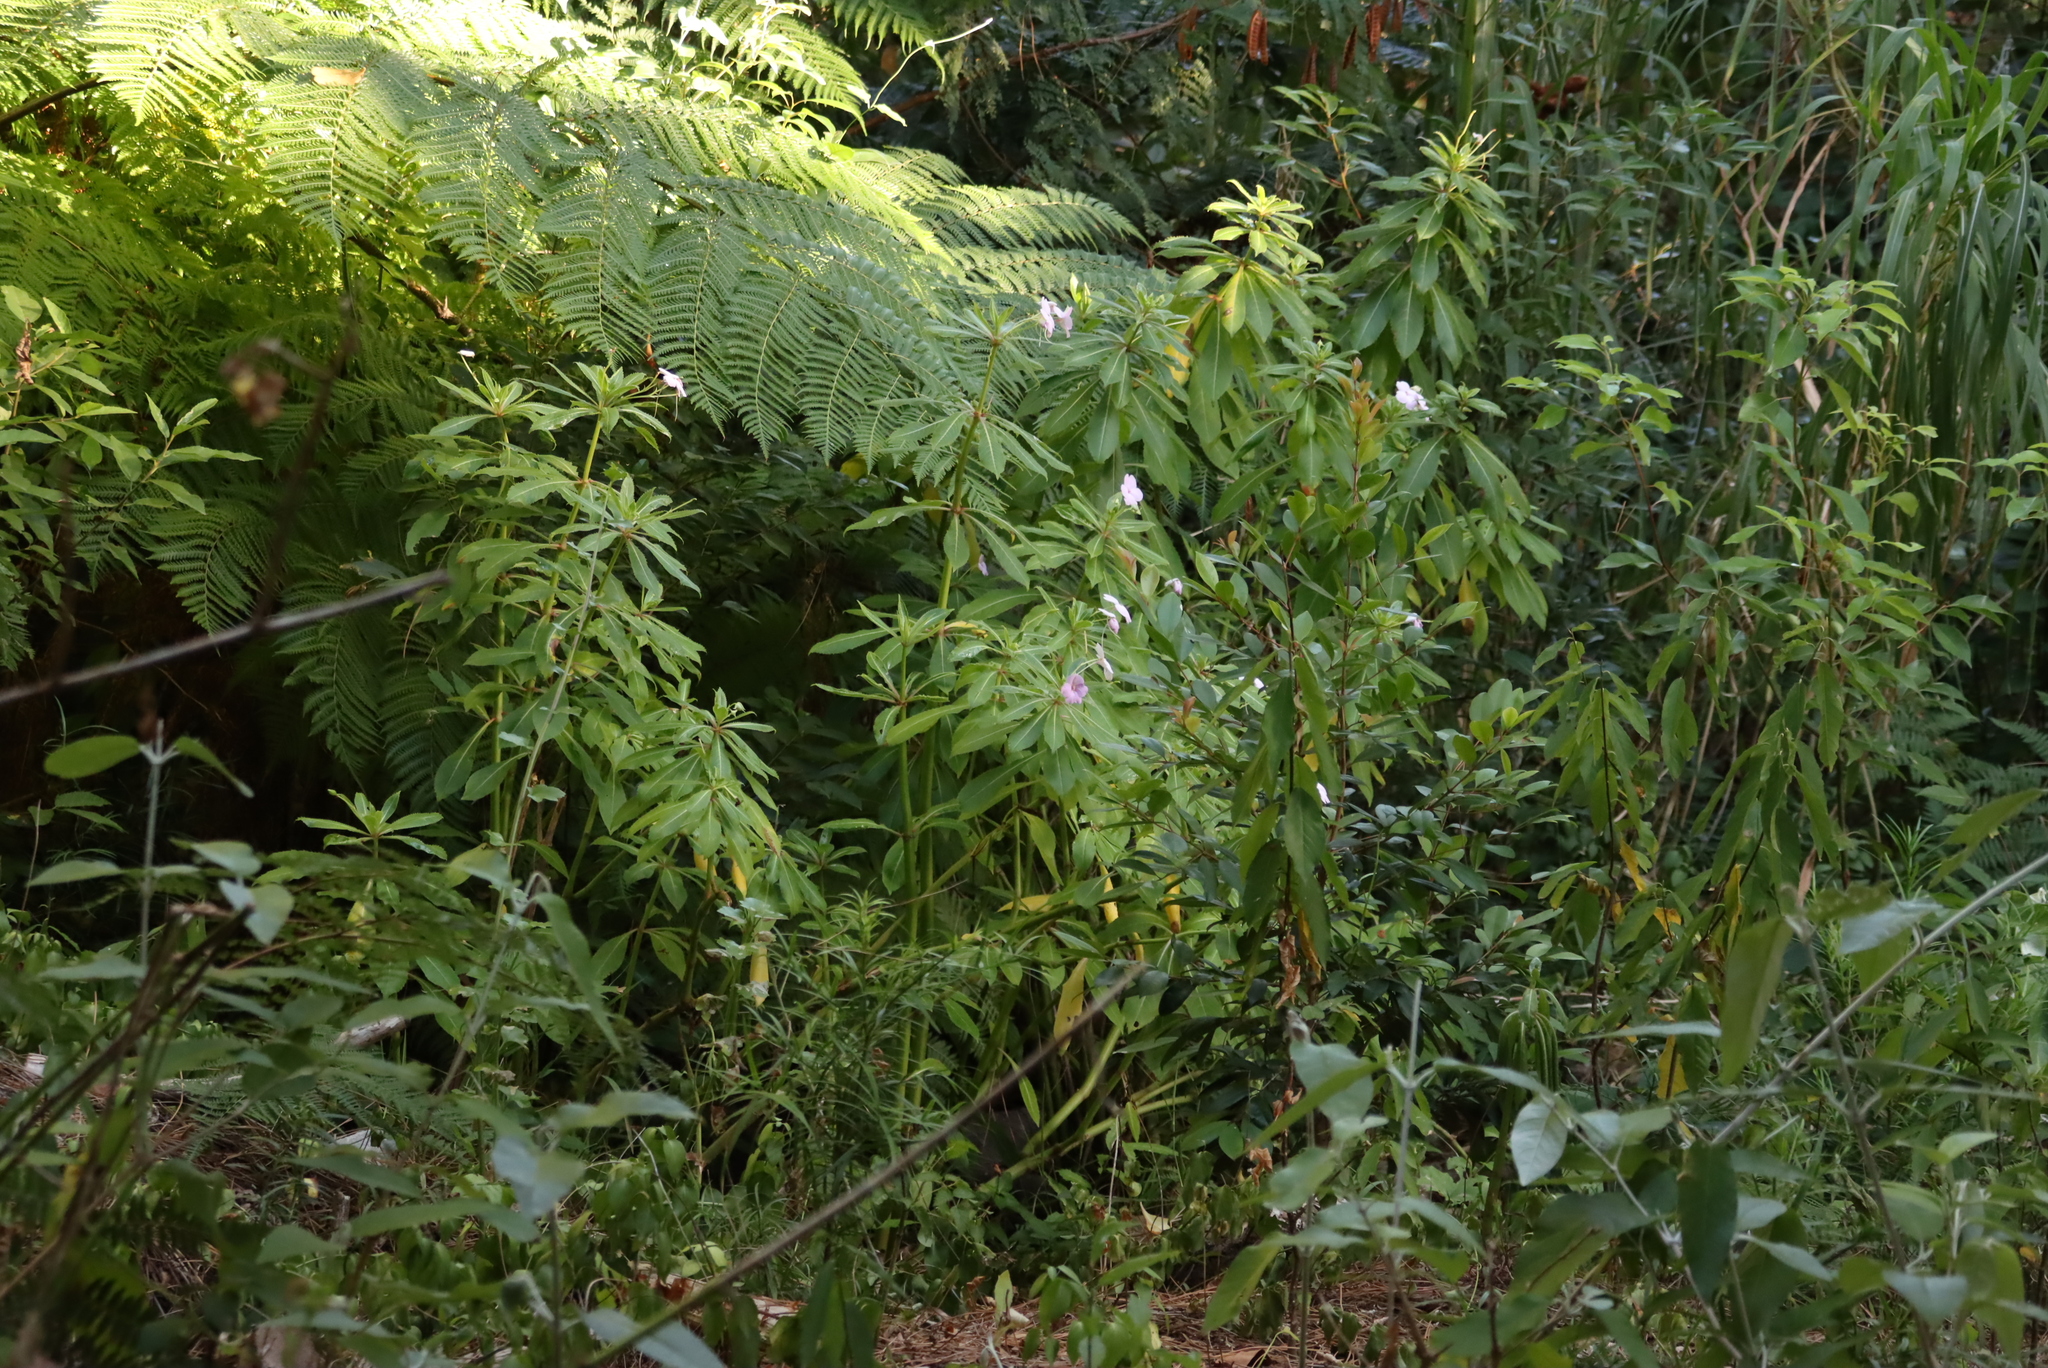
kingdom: Plantae
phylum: Tracheophyta
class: Magnoliopsida
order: Ericales
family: Balsaminaceae
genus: Impatiens
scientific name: Impatiens sodenii
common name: Oliver's touch-me-not
